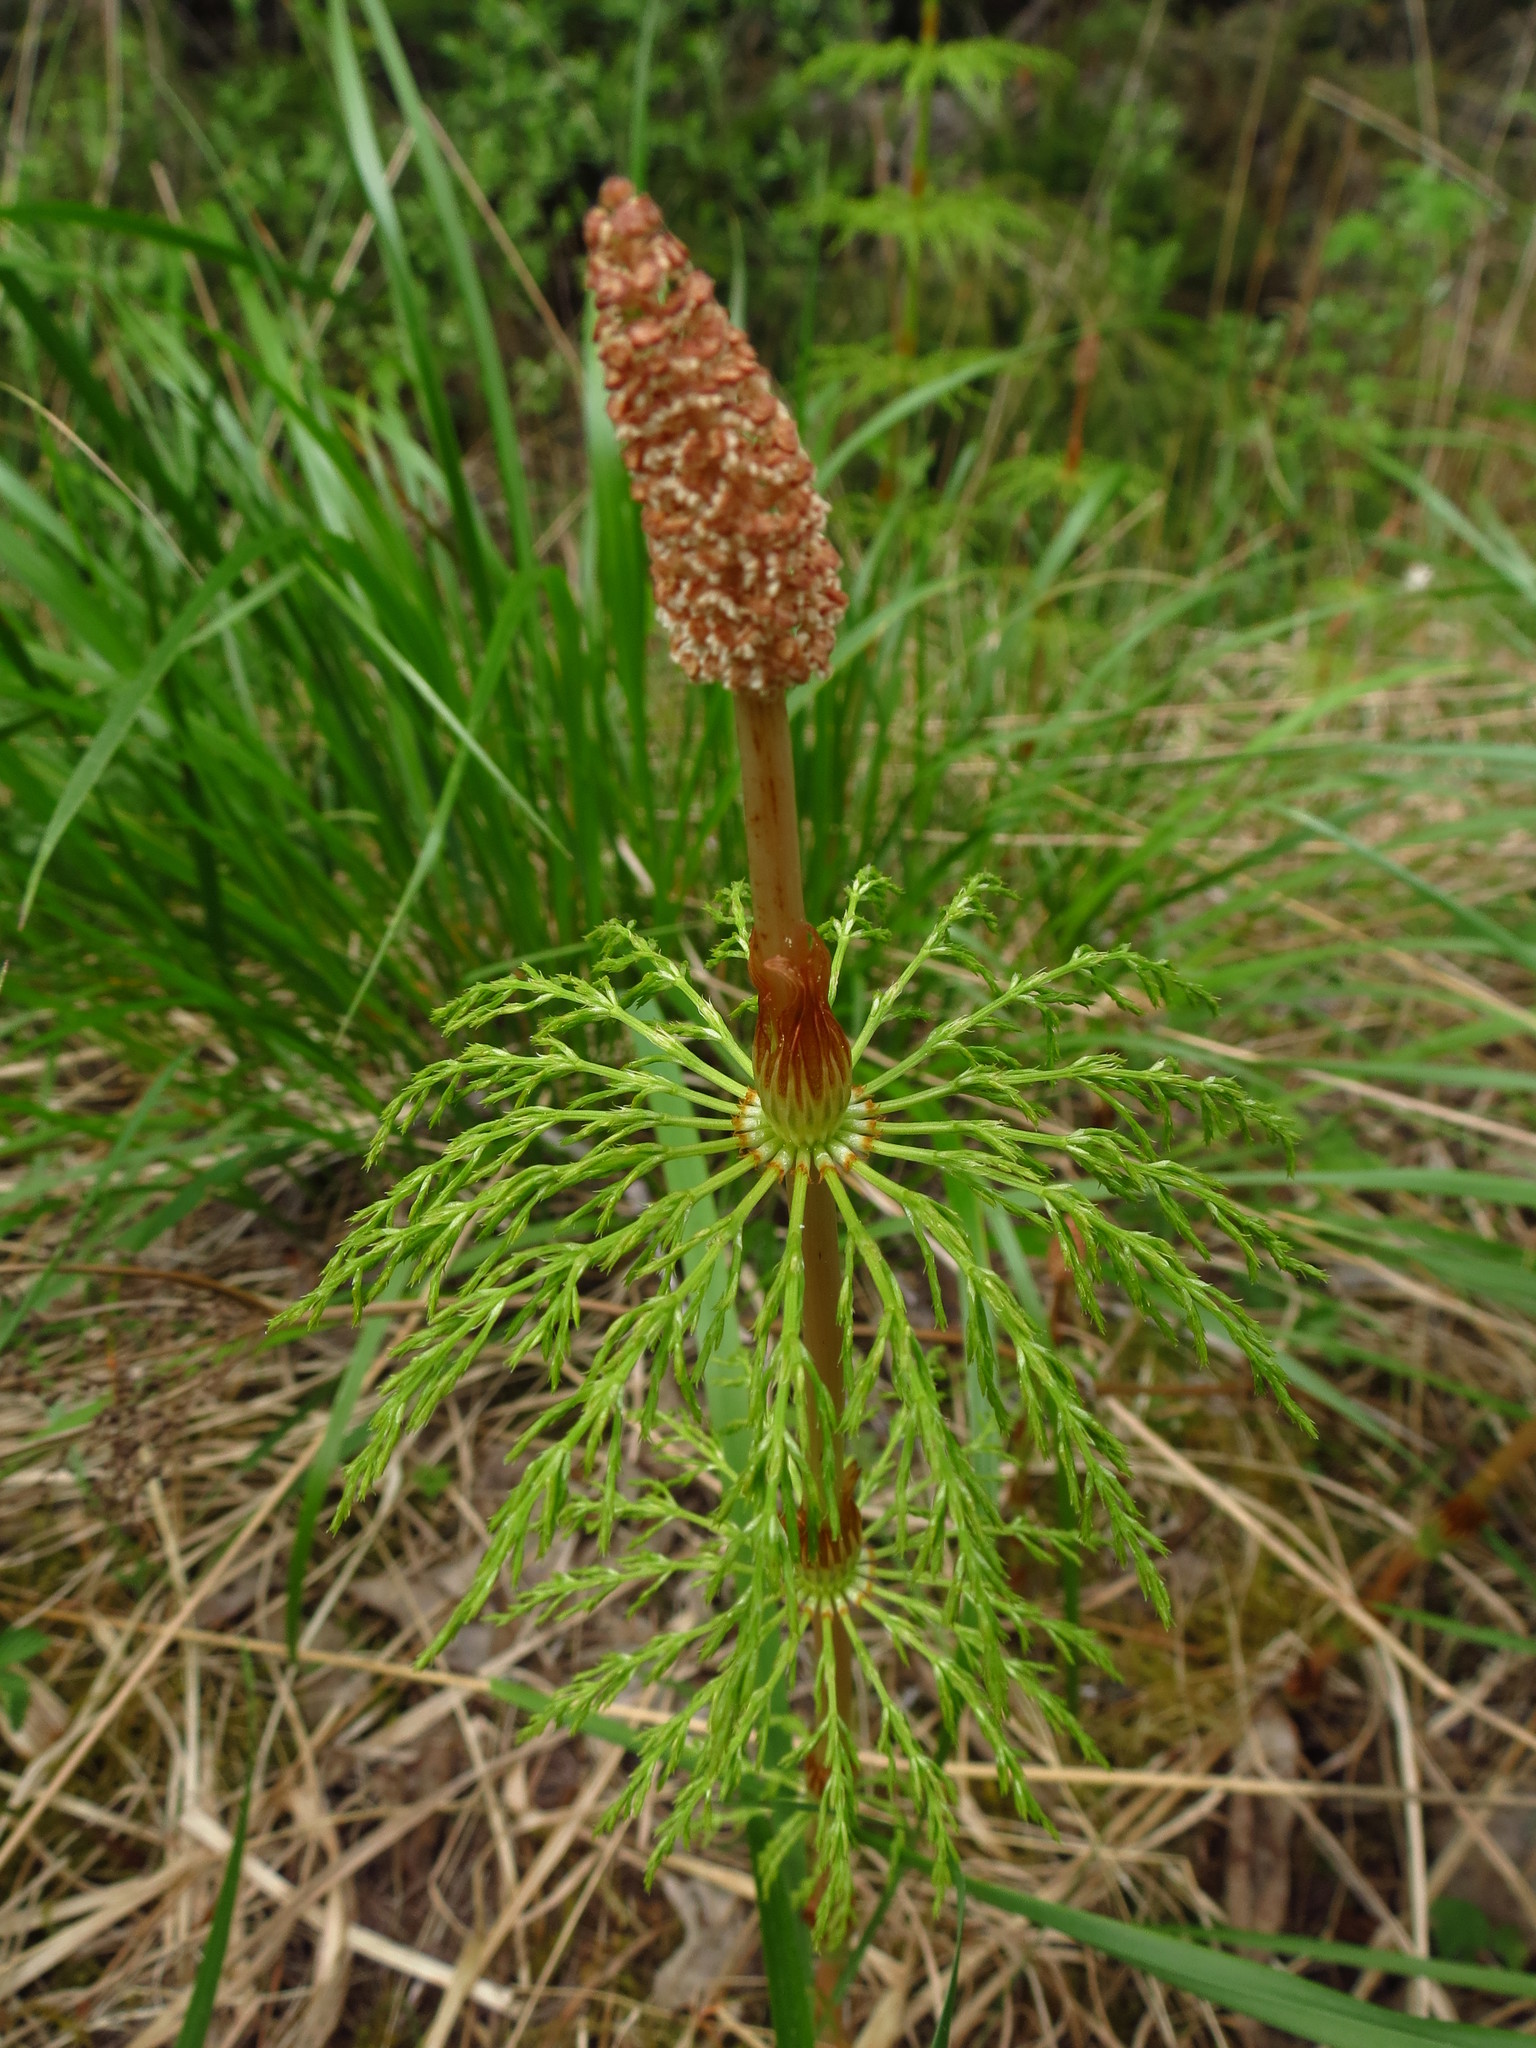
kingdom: Plantae
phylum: Tracheophyta
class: Polypodiopsida
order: Equisetales
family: Equisetaceae
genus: Equisetum
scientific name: Equisetum sylvaticum
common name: Wood horsetail
